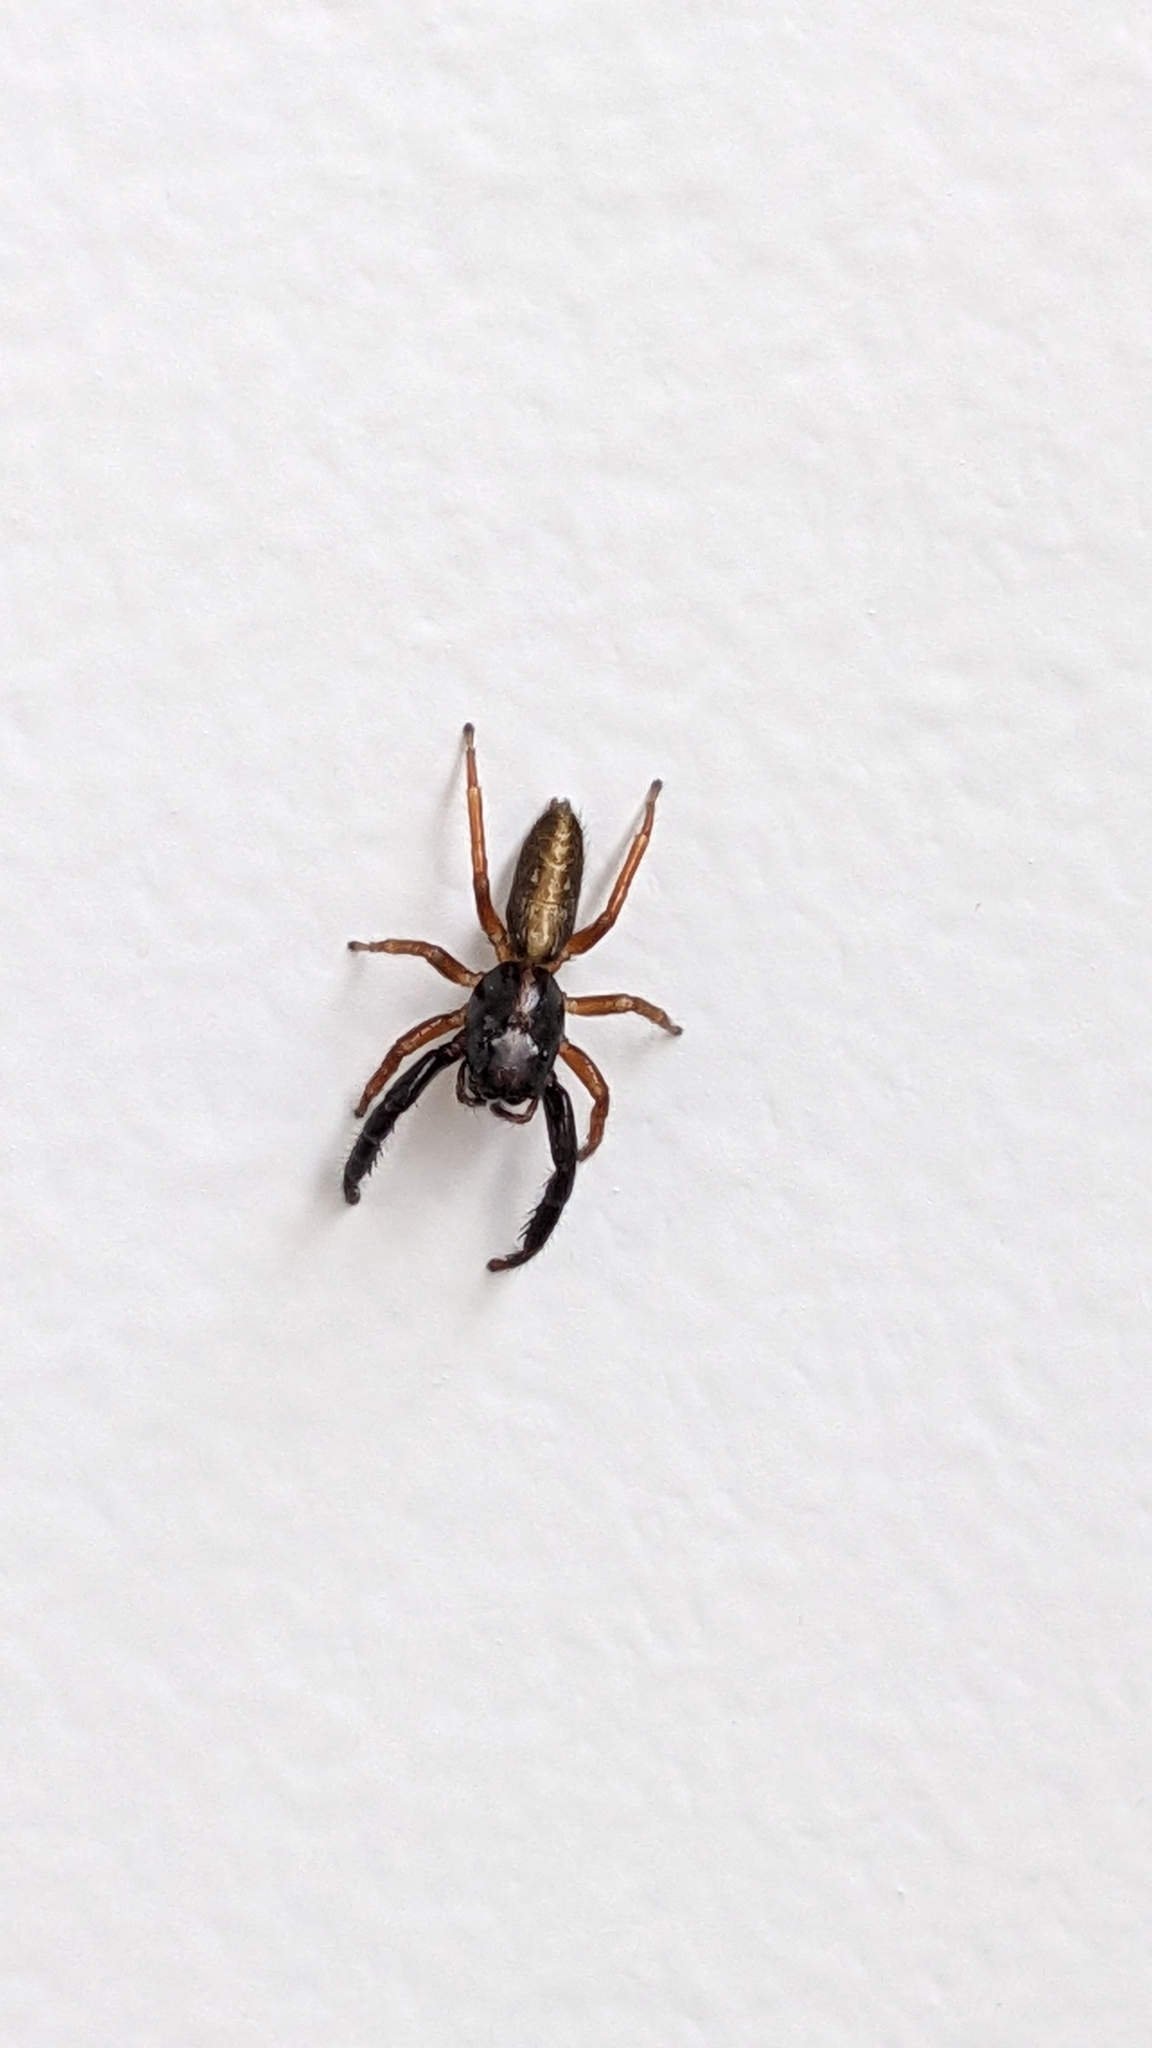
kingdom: Animalia
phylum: Arthropoda
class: Arachnida
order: Araneae
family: Salticidae
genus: Trite
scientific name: Trite planiceps
